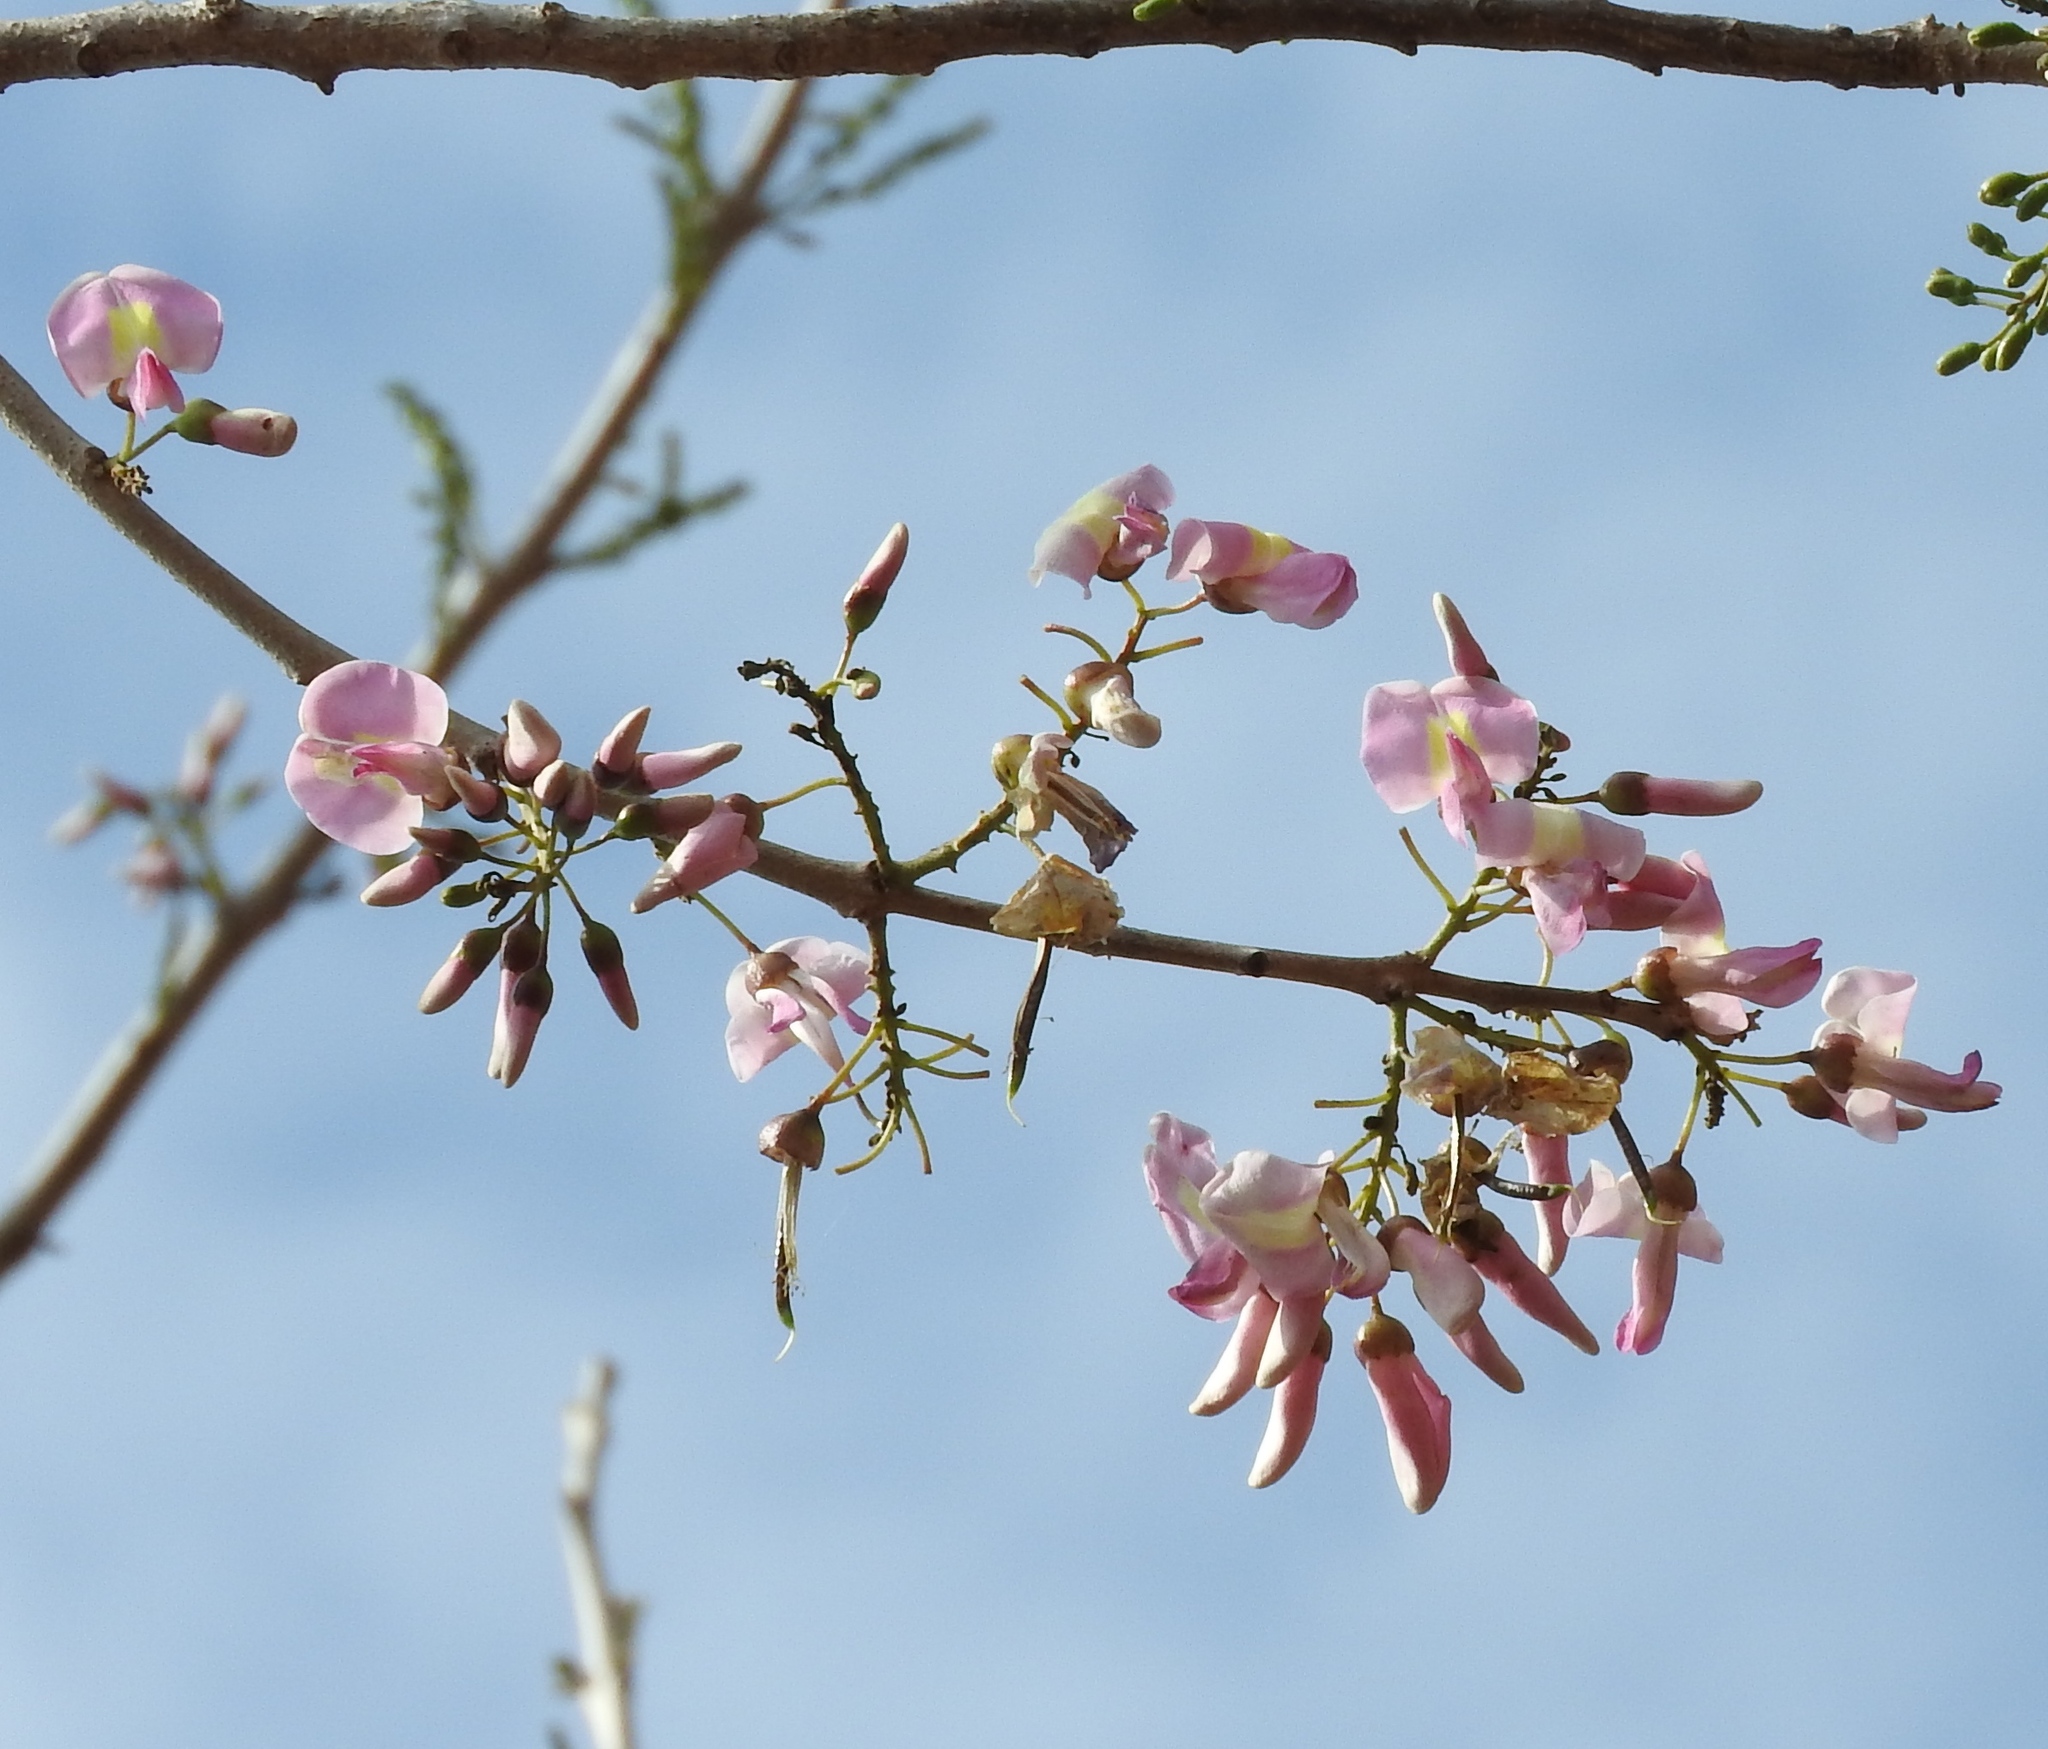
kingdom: Plantae
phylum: Tracheophyta
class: Magnoliopsida
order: Fabales
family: Fabaceae
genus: Gliricidia
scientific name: Gliricidia sepium
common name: Quickstick
